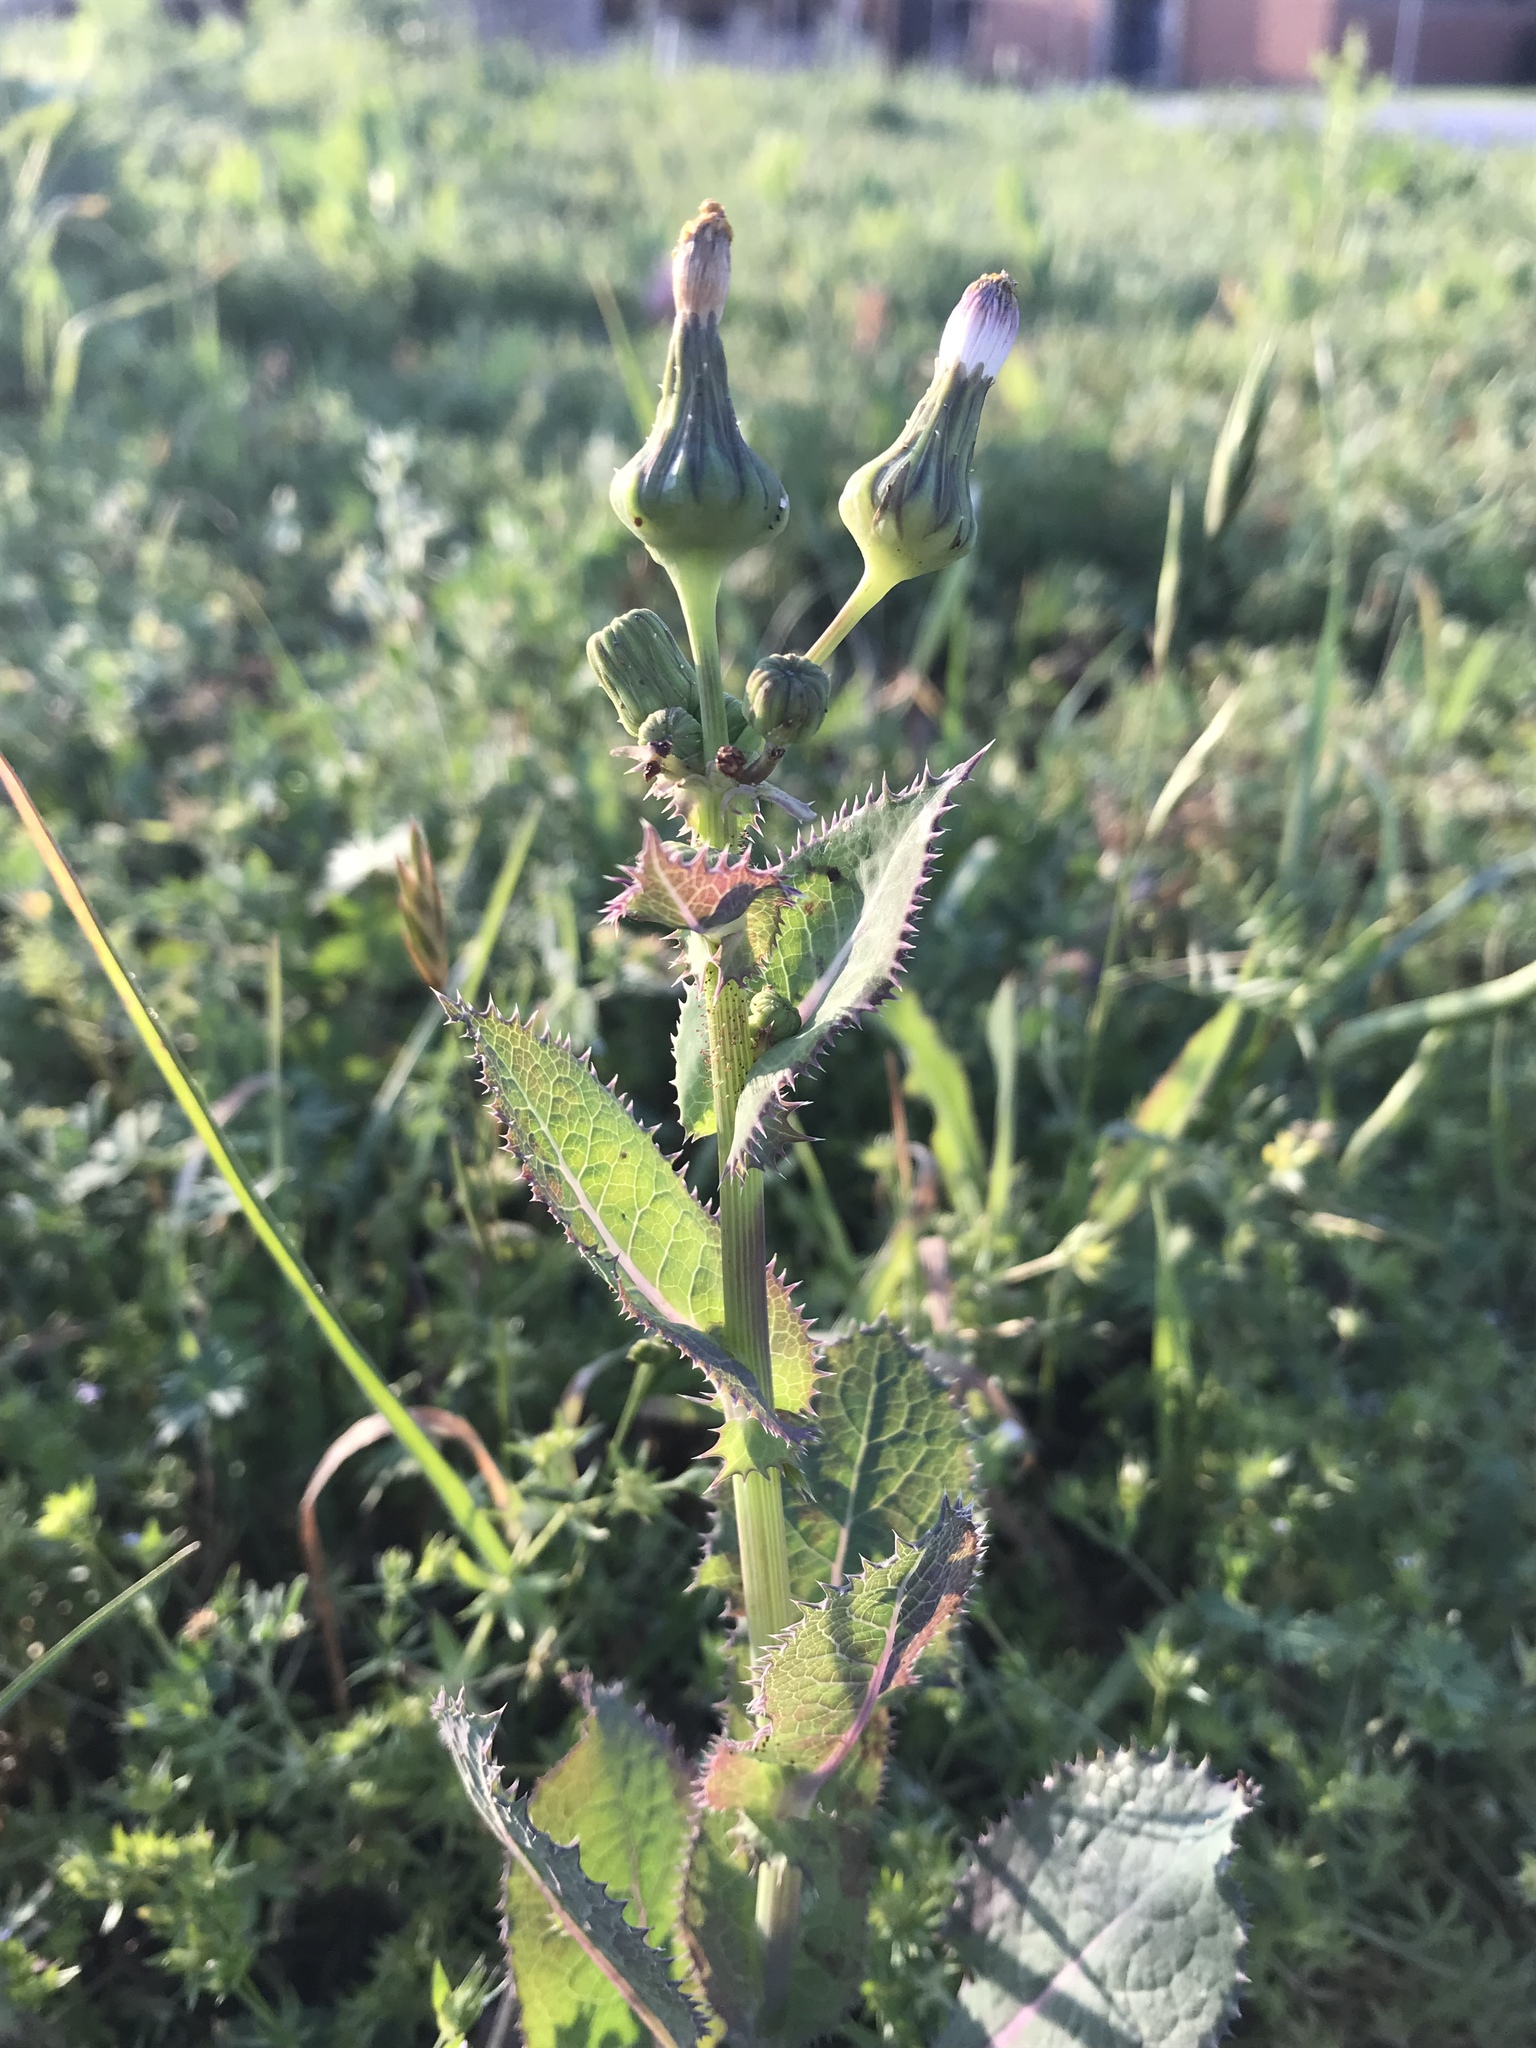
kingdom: Plantae
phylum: Tracheophyta
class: Magnoliopsida
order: Asterales
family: Asteraceae
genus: Sonchus
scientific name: Sonchus asper
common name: Prickly sow-thistle
